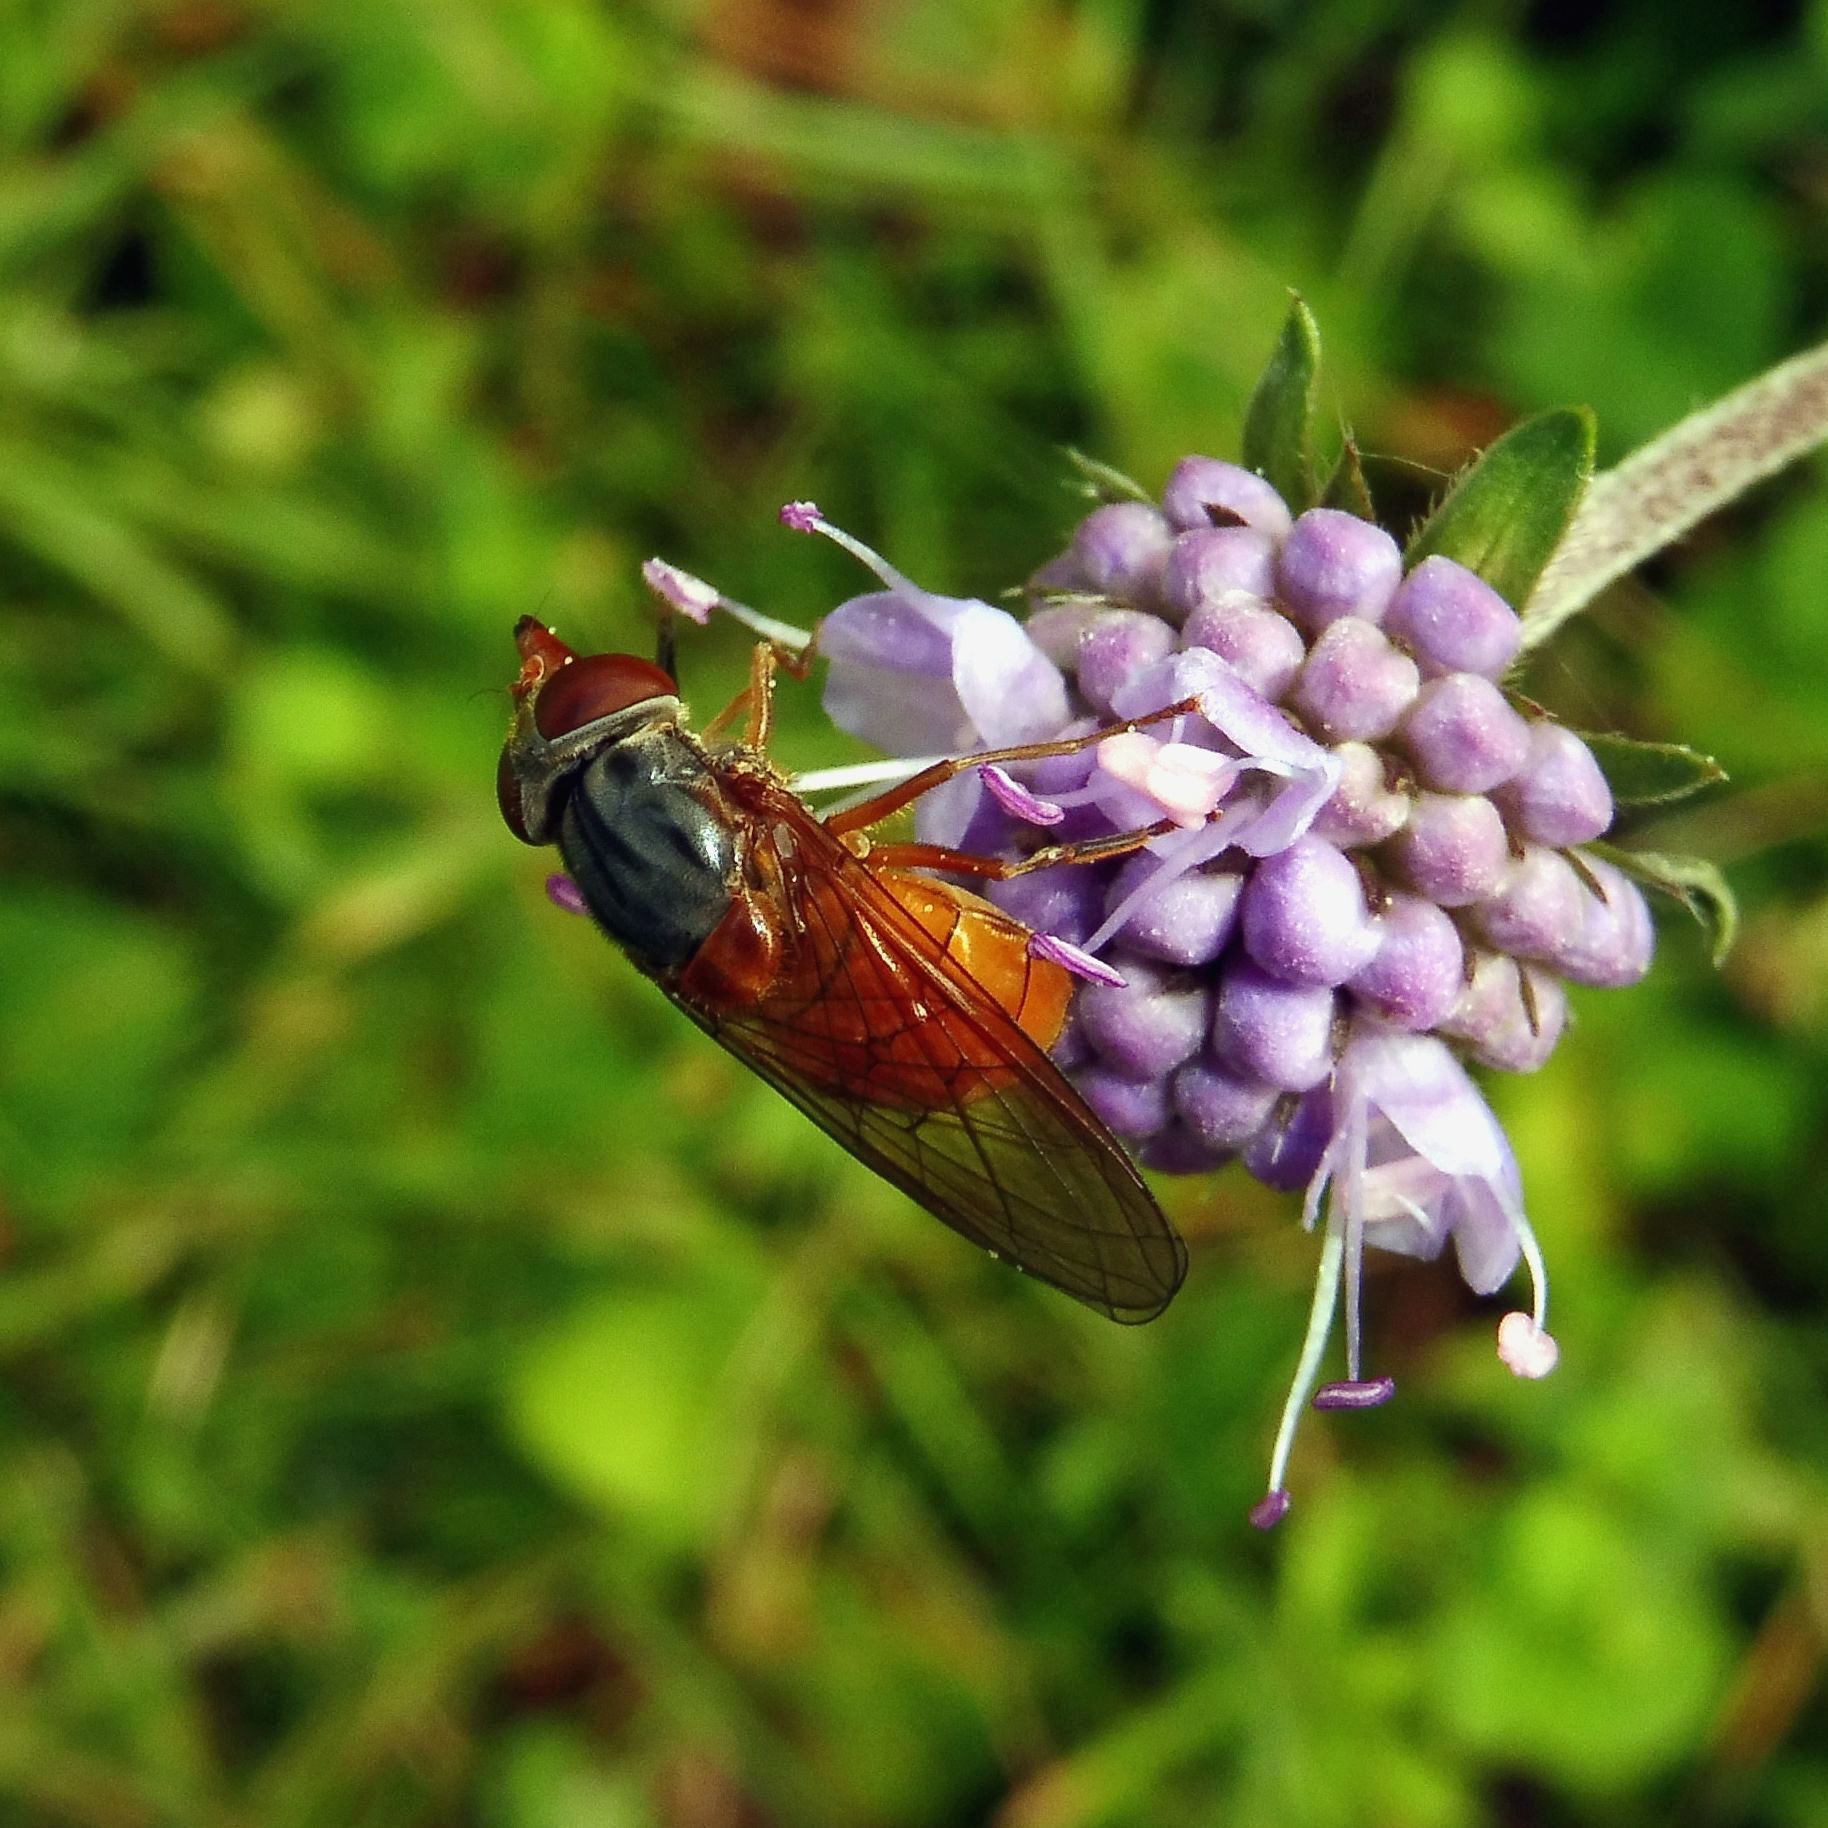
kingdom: Animalia
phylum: Arthropoda
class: Insecta
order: Diptera
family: Syrphidae
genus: Rhingia
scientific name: Rhingia rostrata
